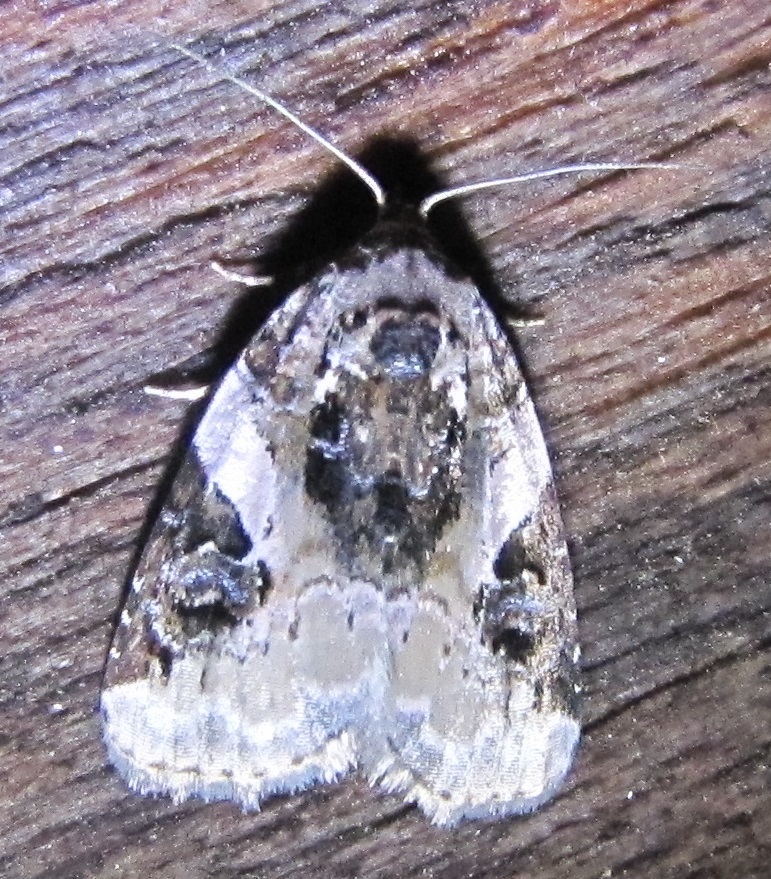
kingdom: Animalia
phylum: Arthropoda
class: Insecta
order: Lepidoptera
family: Noctuidae
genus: Pseudeustrotia
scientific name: Pseudeustrotia carneola
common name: Pink-barred lithacodia moth
